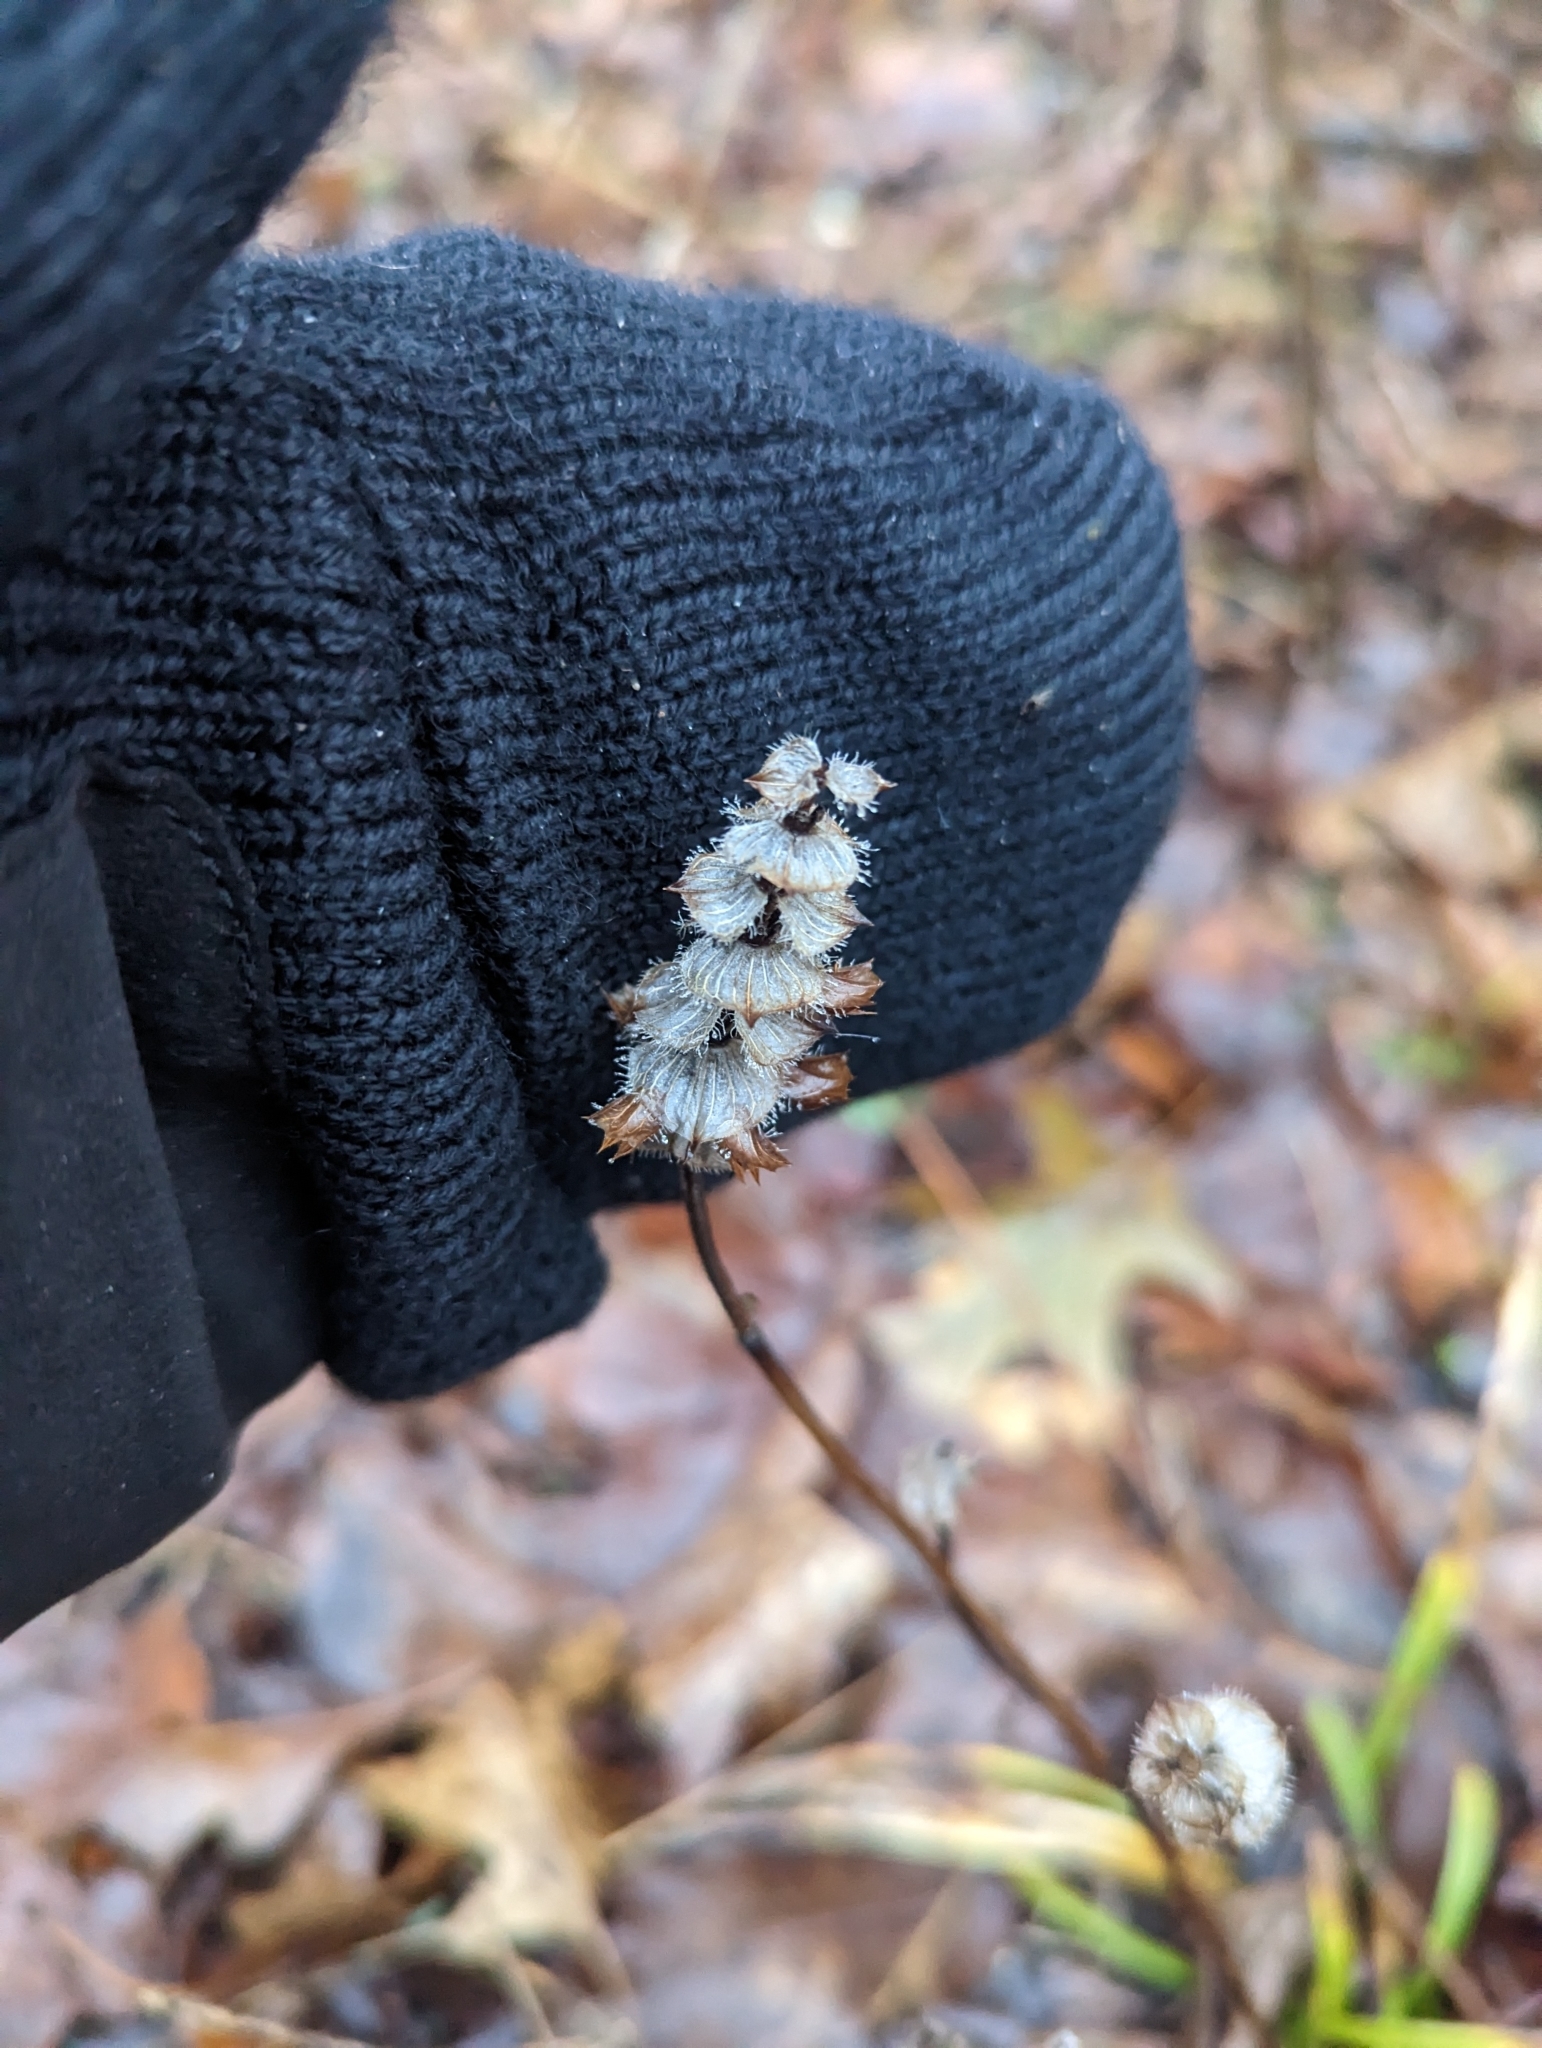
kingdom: Plantae
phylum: Tracheophyta
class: Magnoliopsida
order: Lamiales
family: Lamiaceae
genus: Prunella
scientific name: Prunella vulgaris
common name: Heal-all
